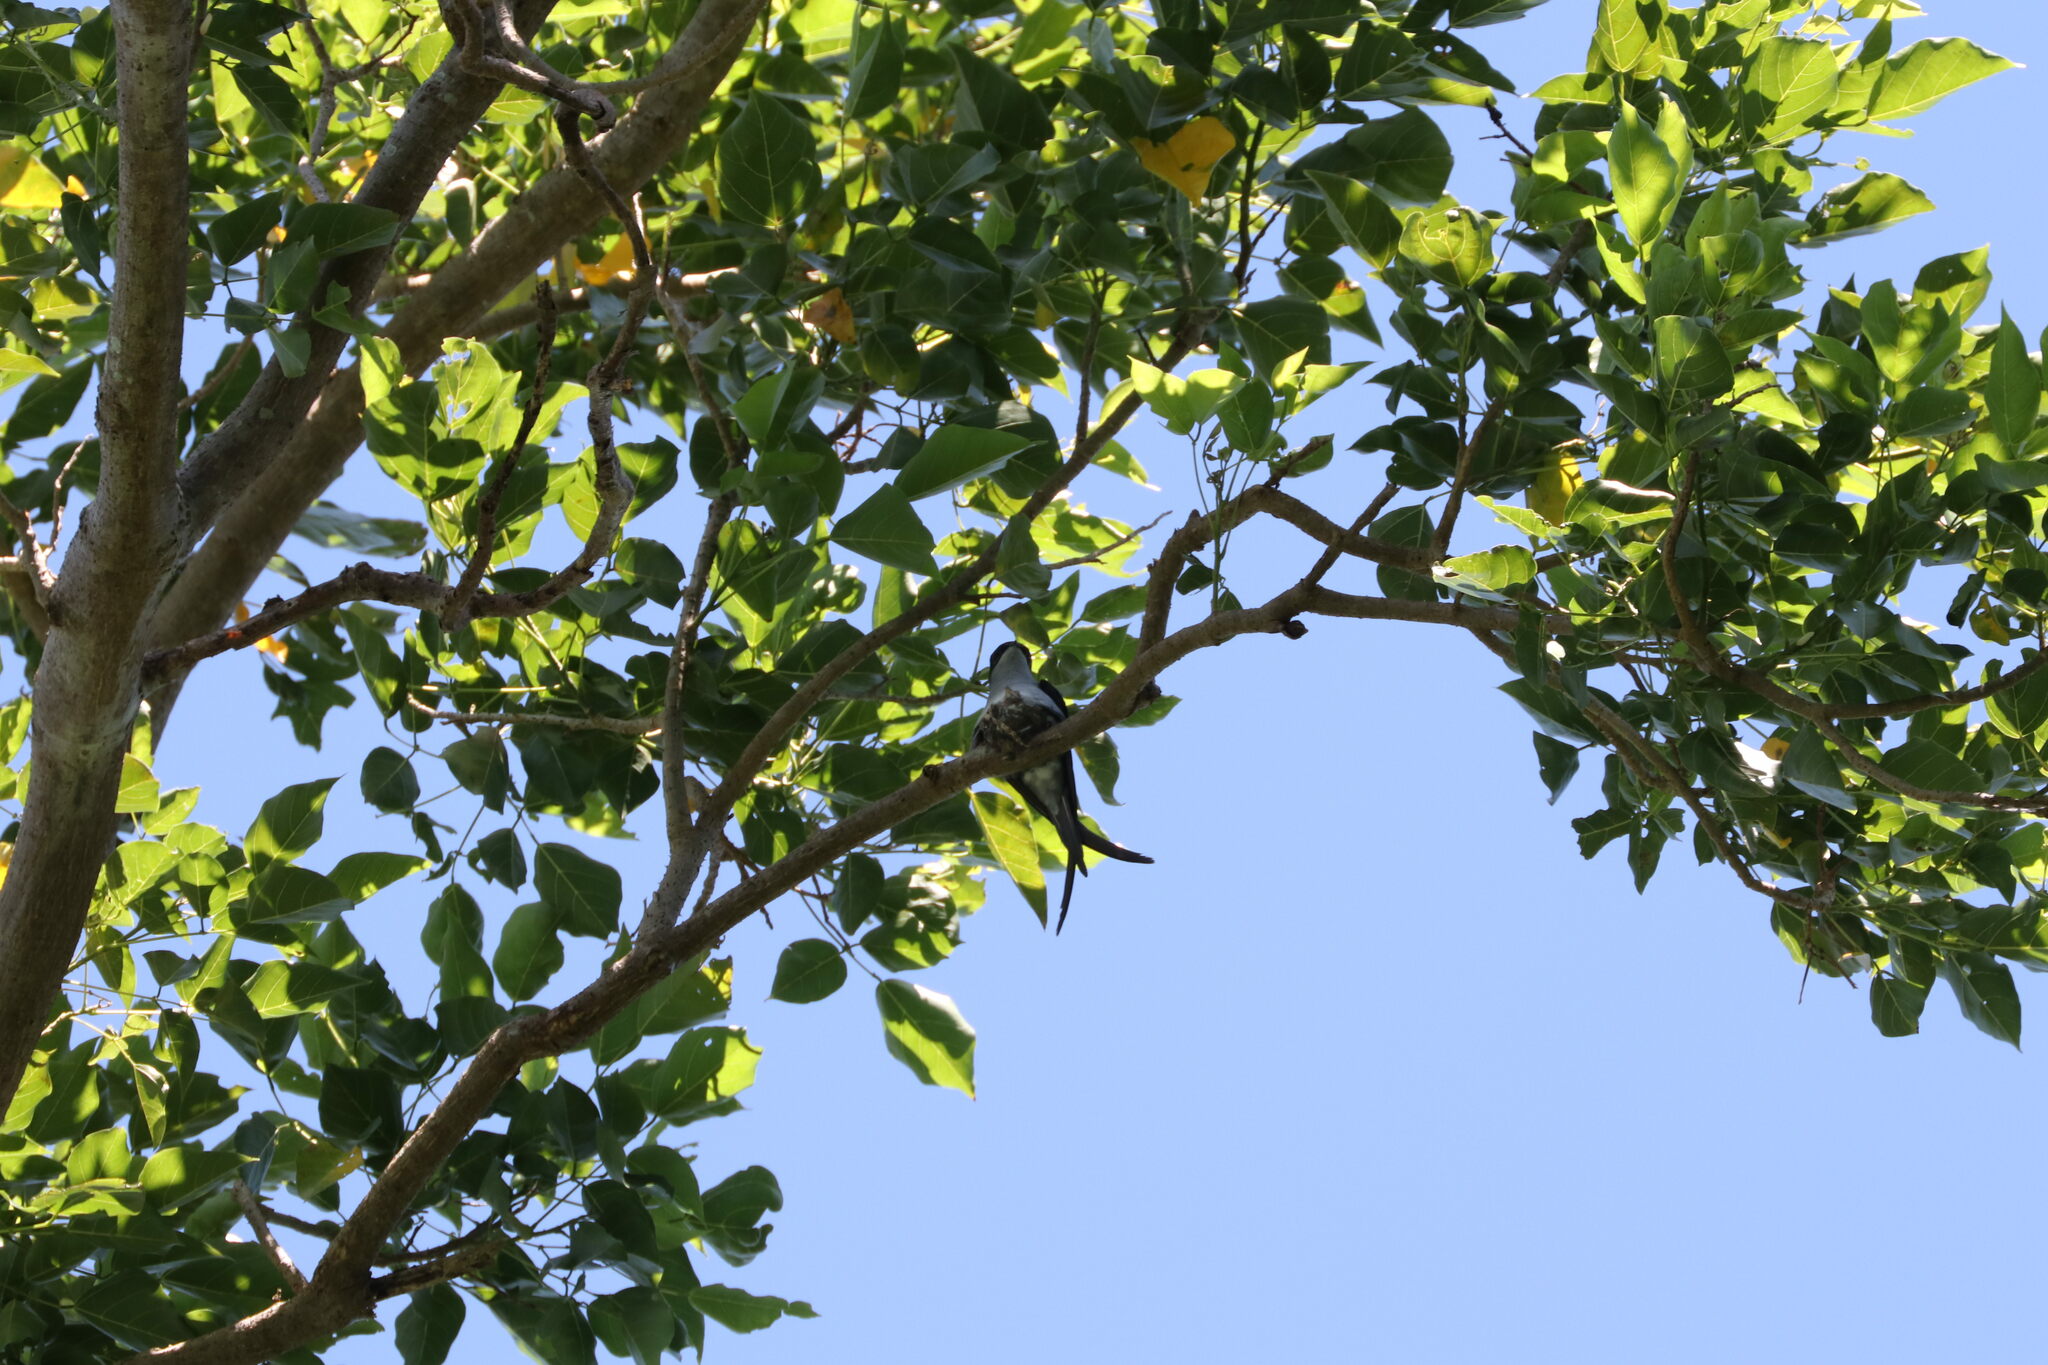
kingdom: Animalia
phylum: Chordata
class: Aves
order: Apodiformes
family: Hemiprocnidae
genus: Hemiprocne
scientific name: Hemiprocne longipennis
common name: Grey-rumped treeswift
